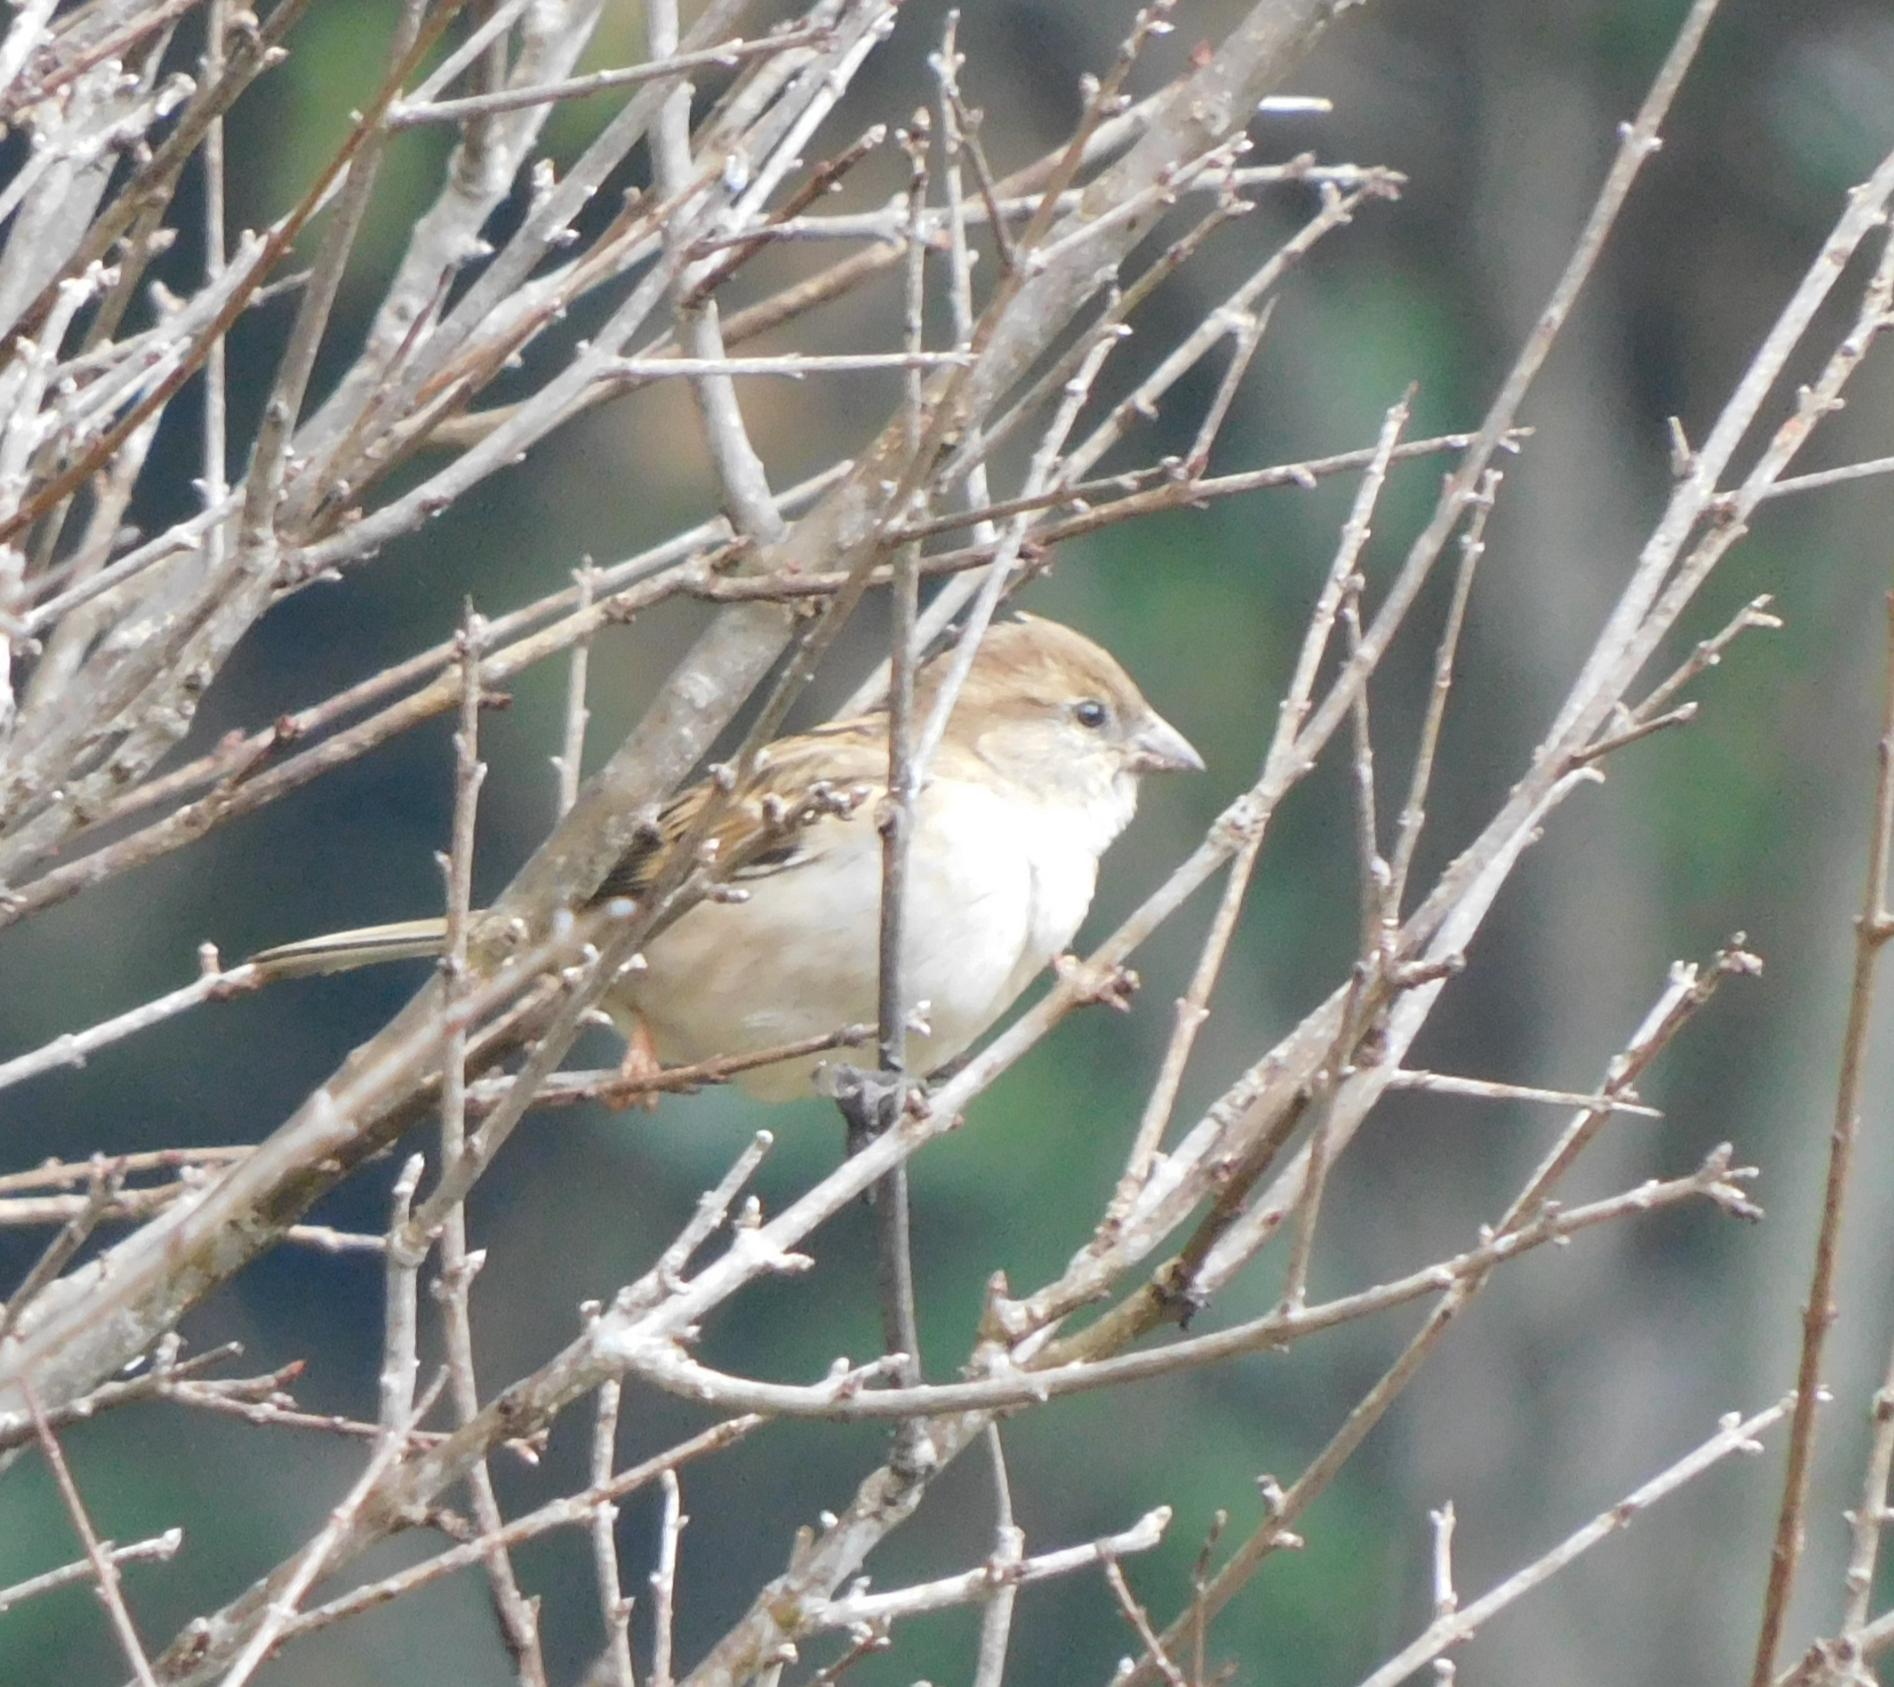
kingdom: Animalia
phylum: Chordata
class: Aves
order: Passeriformes
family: Passeridae
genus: Passer
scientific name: Passer domesticus
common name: House sparrow
